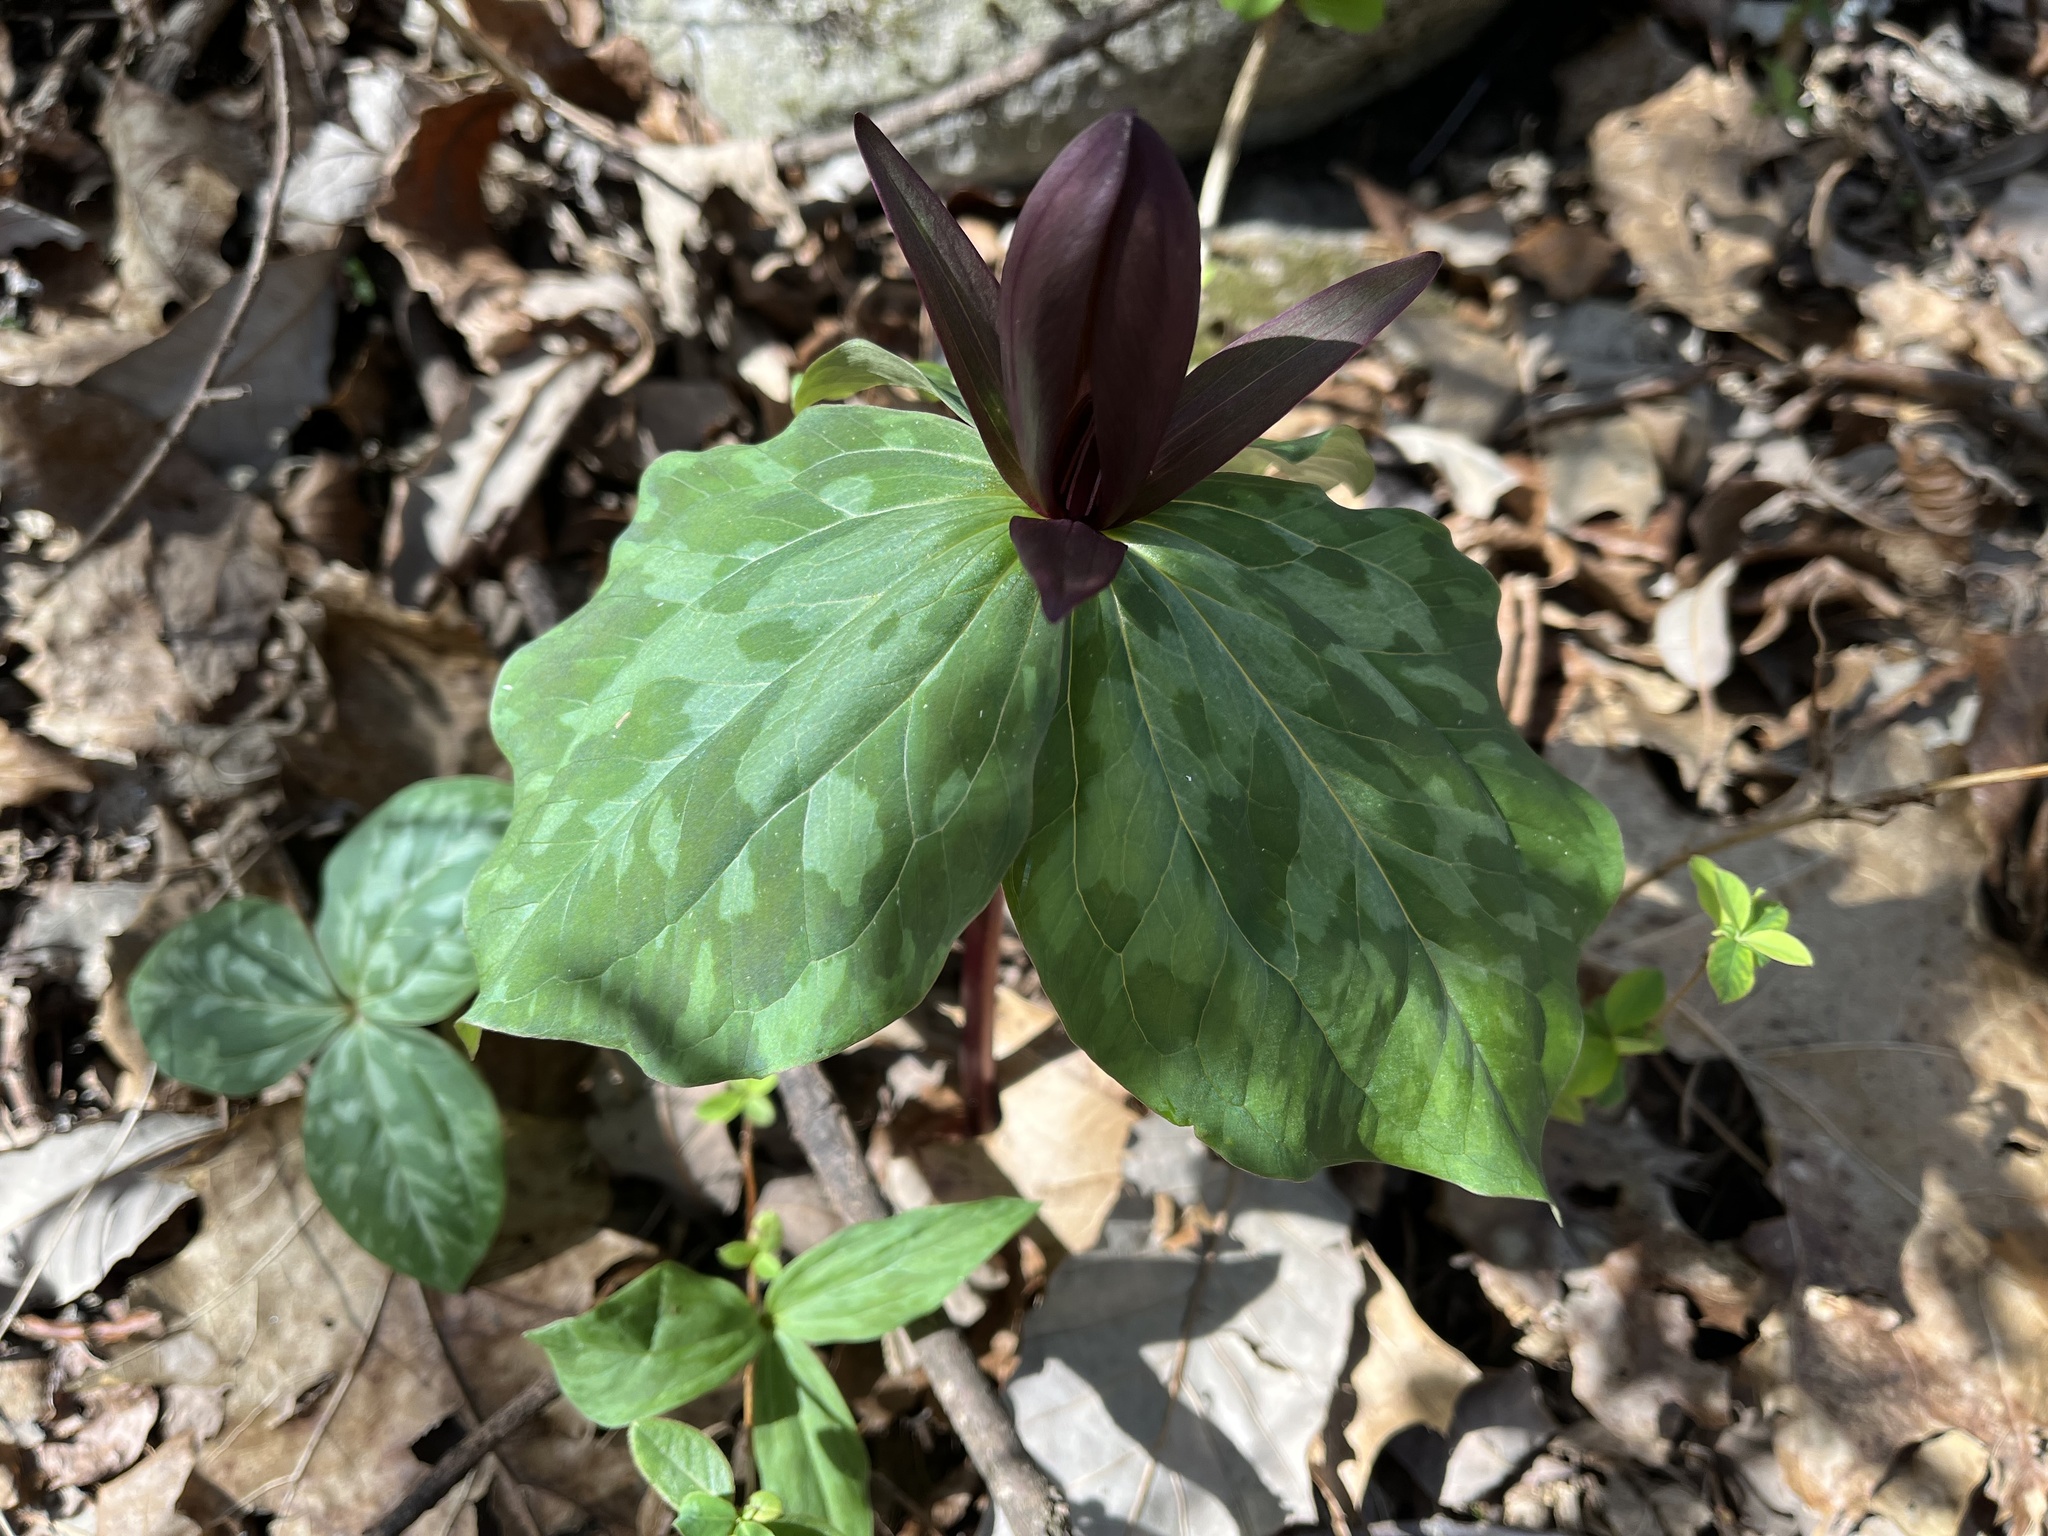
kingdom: Plantae
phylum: Tracheophyta
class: Liliopsida
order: Liliales
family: Melanthiaceae
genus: Trillium
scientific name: Trillium cuneatum
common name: Cuneate trillium
